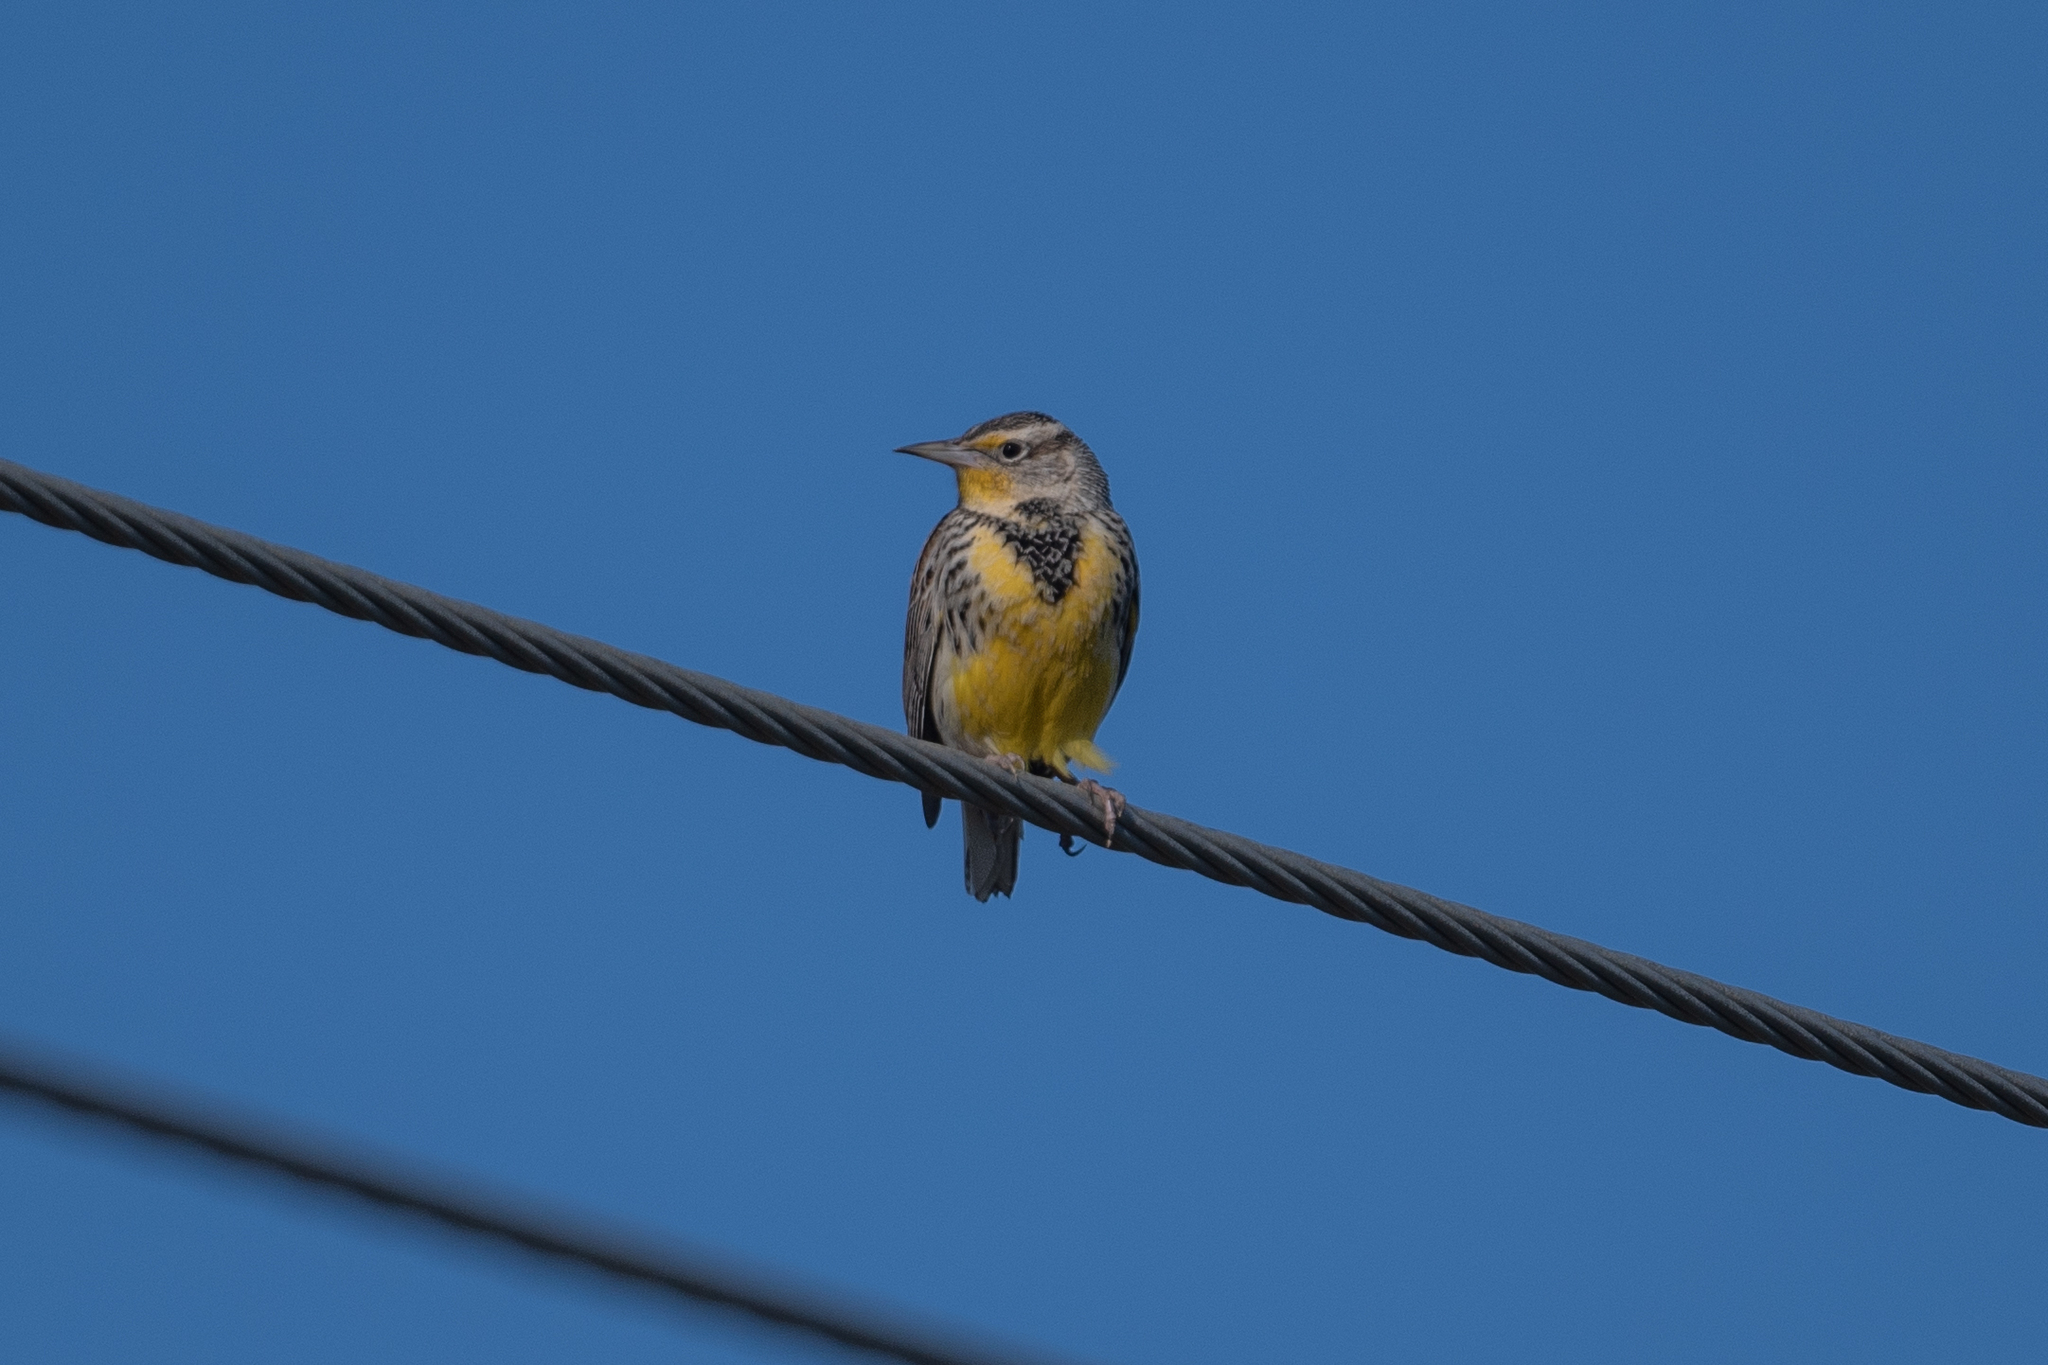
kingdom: Animalia
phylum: Chordata
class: Aves
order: Passeriformes
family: Icteridae
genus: Sturnella
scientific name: Sturnella neglecta
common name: Western meadowlark
